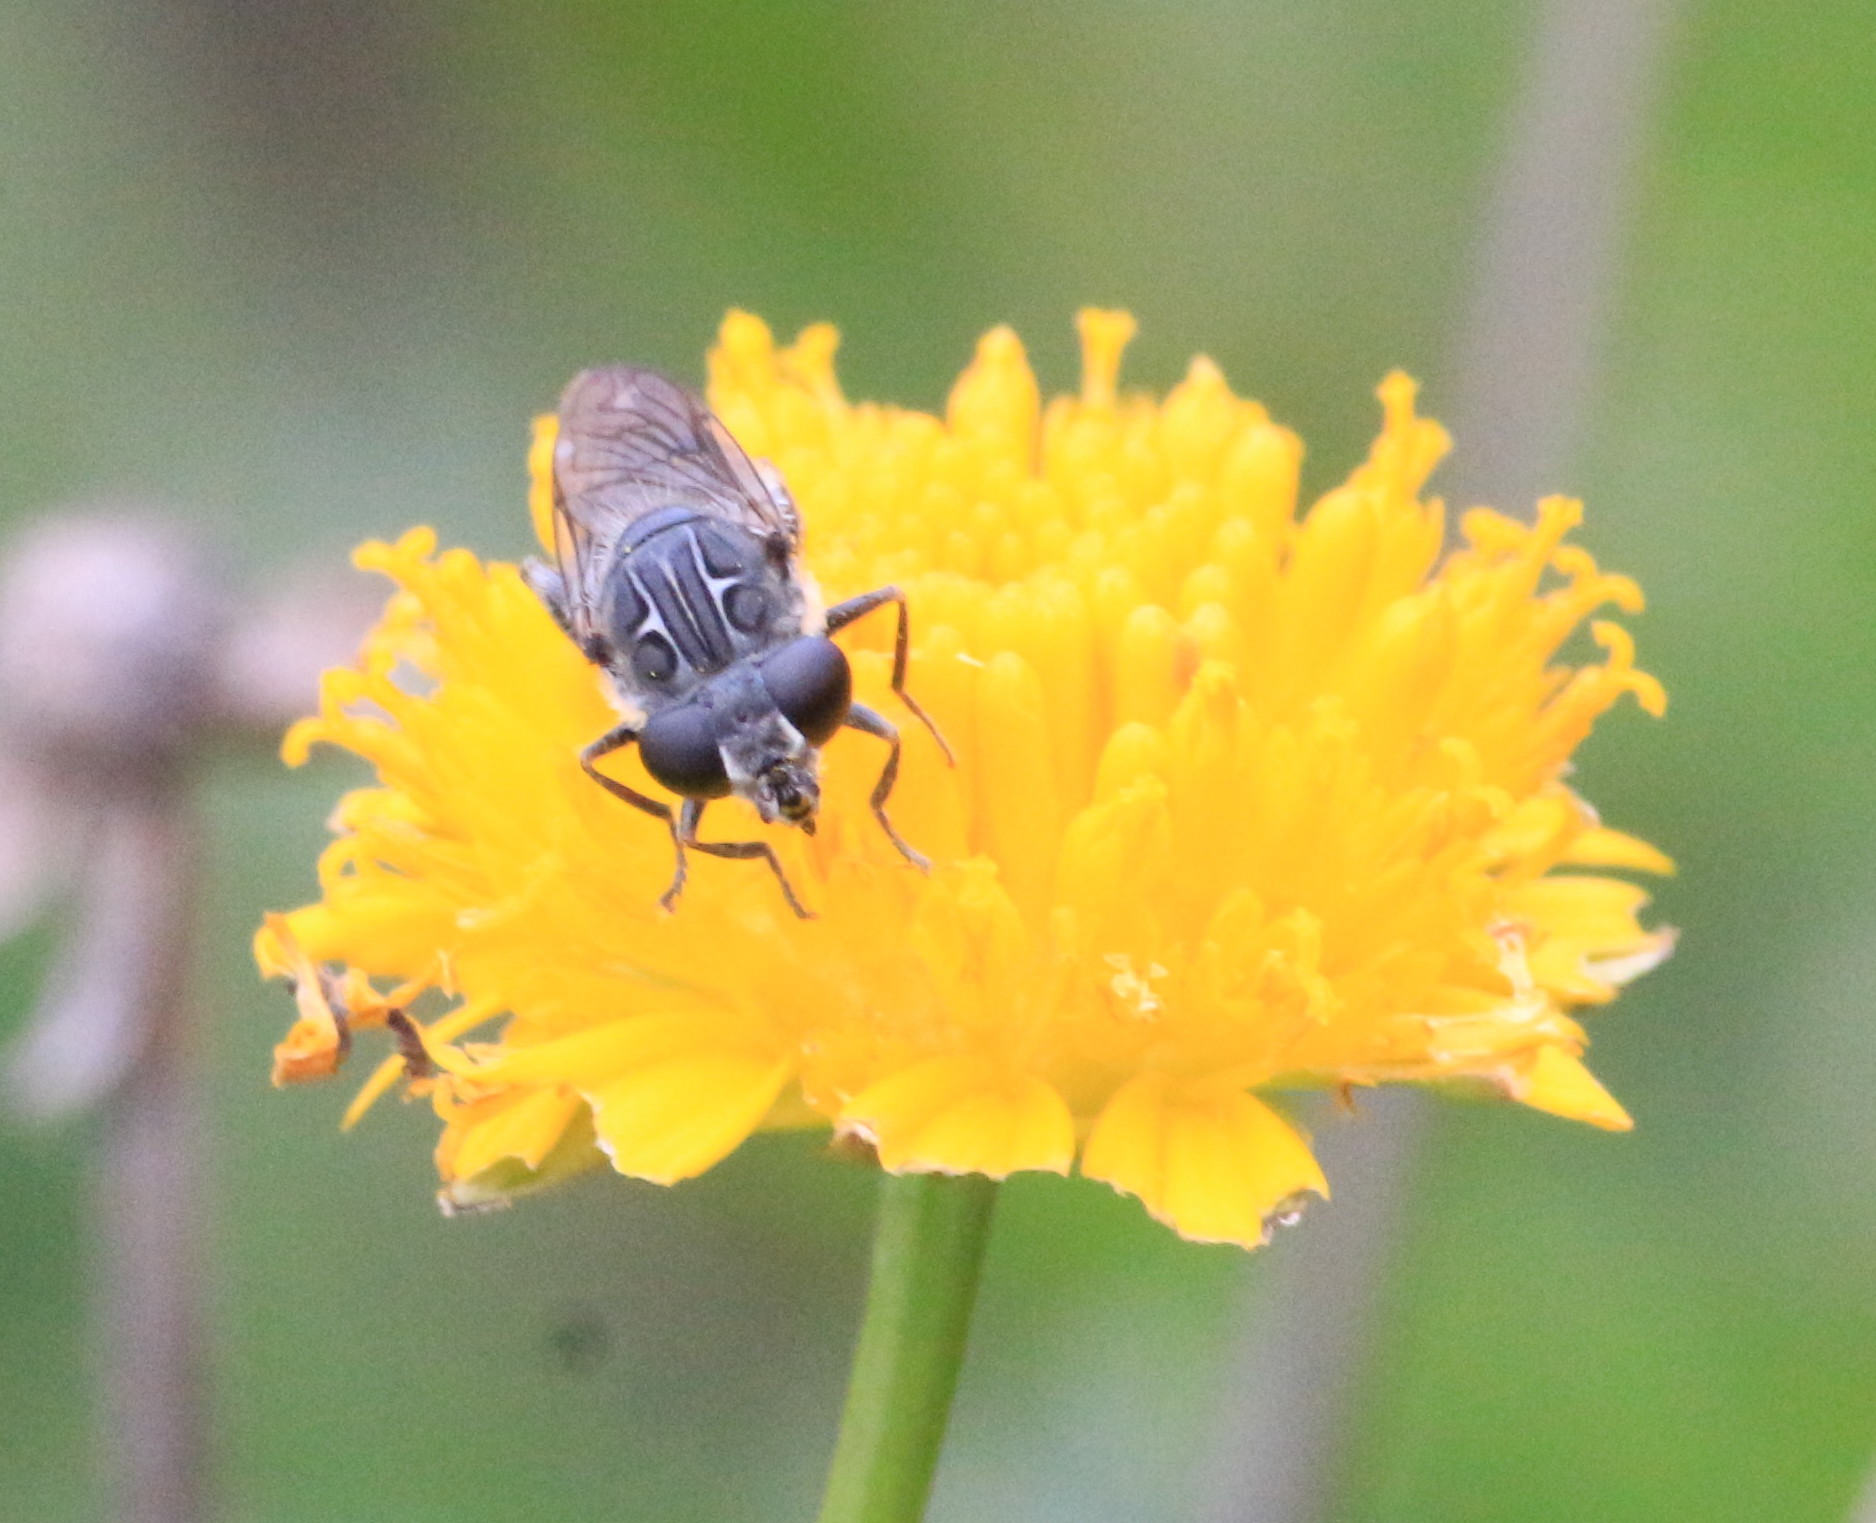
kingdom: Animalia
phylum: Arthropoda
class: Insecta
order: Diptera
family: Syrphidae
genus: Asemosyrphus
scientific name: Asemosyrphus
